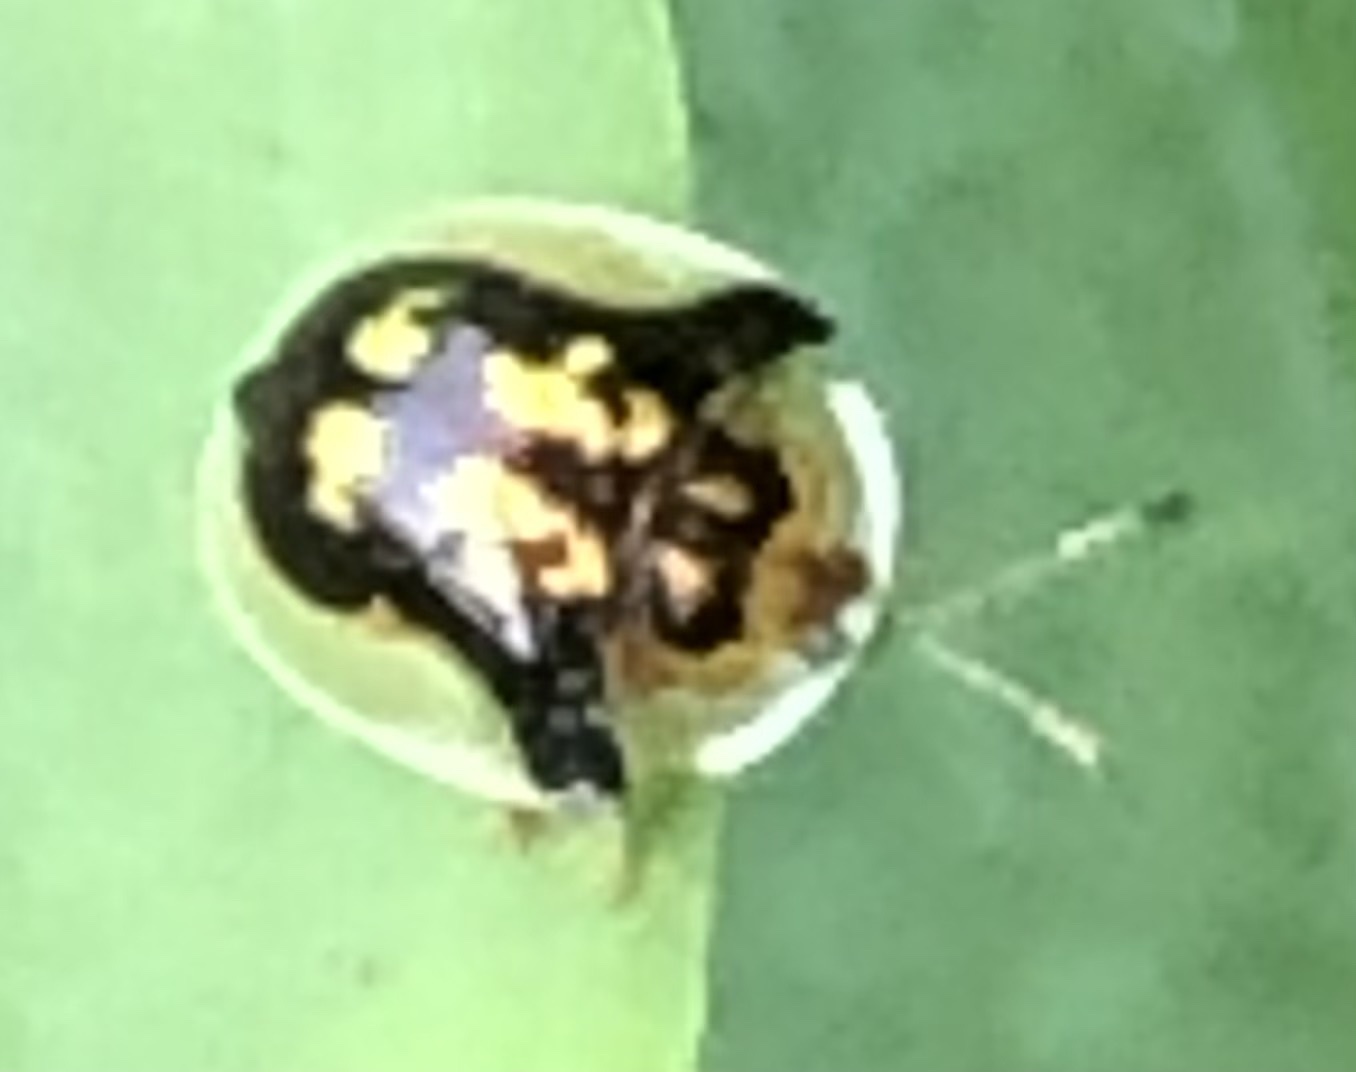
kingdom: Animalia
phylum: Arthropoda
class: Insecta
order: Coleoptera
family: Chrysomelidae
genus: Deloyala
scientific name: Deloyala guttata
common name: Mottled tortoise beetle
